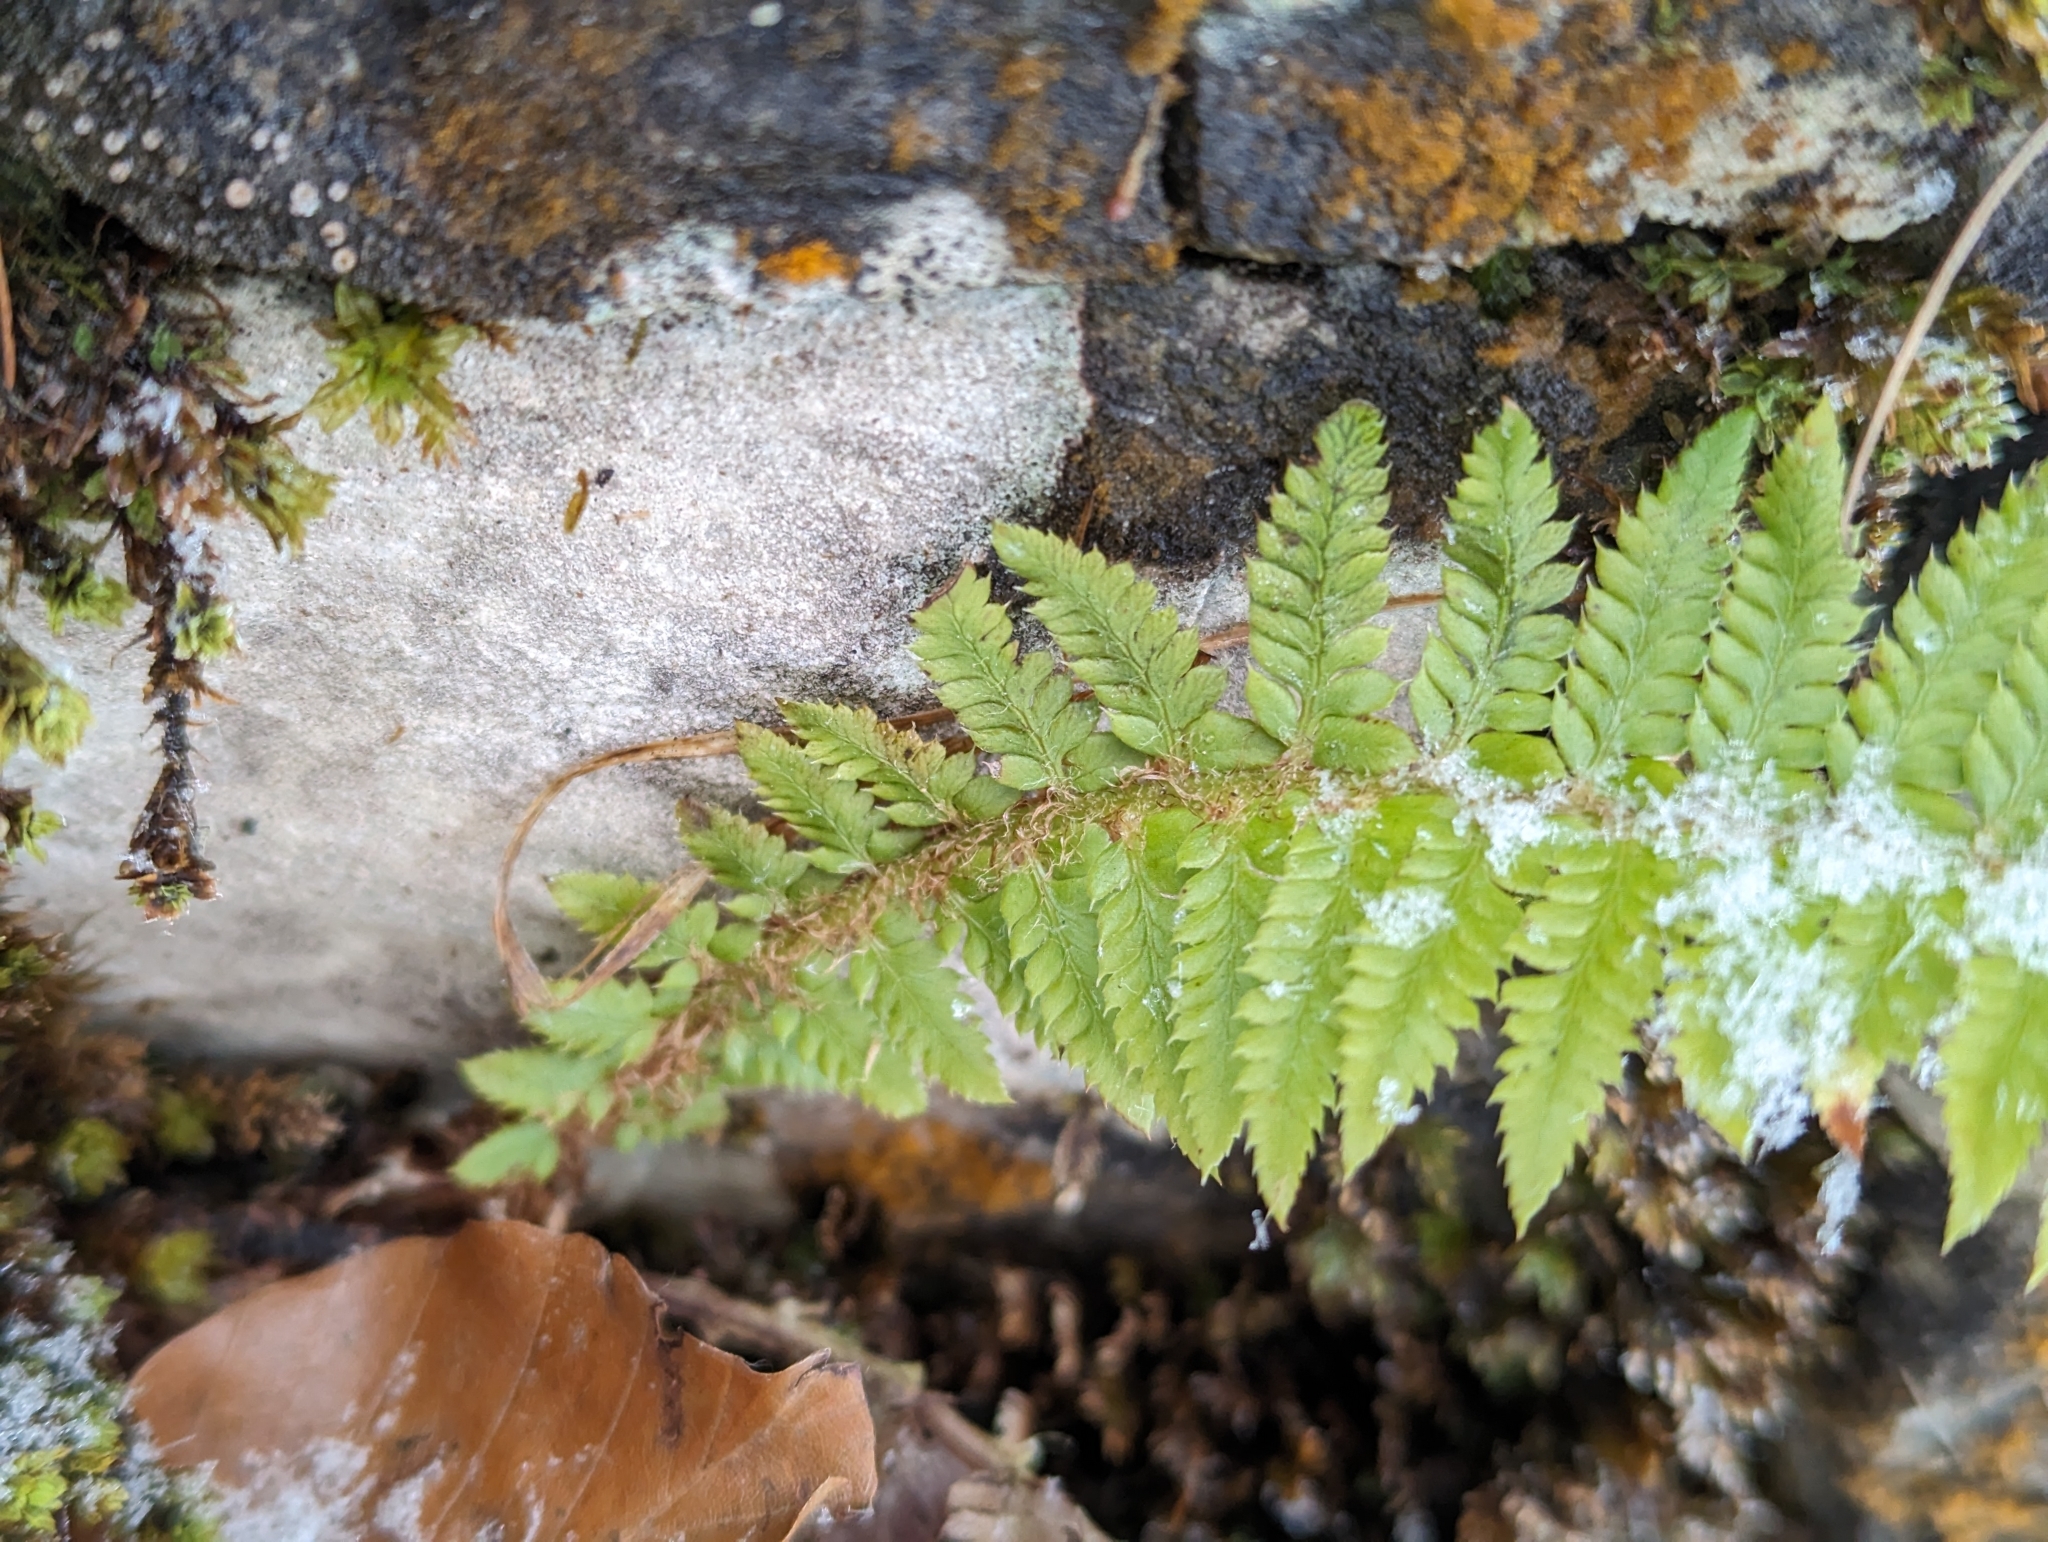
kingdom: Plantae
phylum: Tracheophyta
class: Polypodiopsida
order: Polypodiales
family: Dryopteridaceae
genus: Polystichum
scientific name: Polystichum aculeatum
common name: Hard shield-fern
